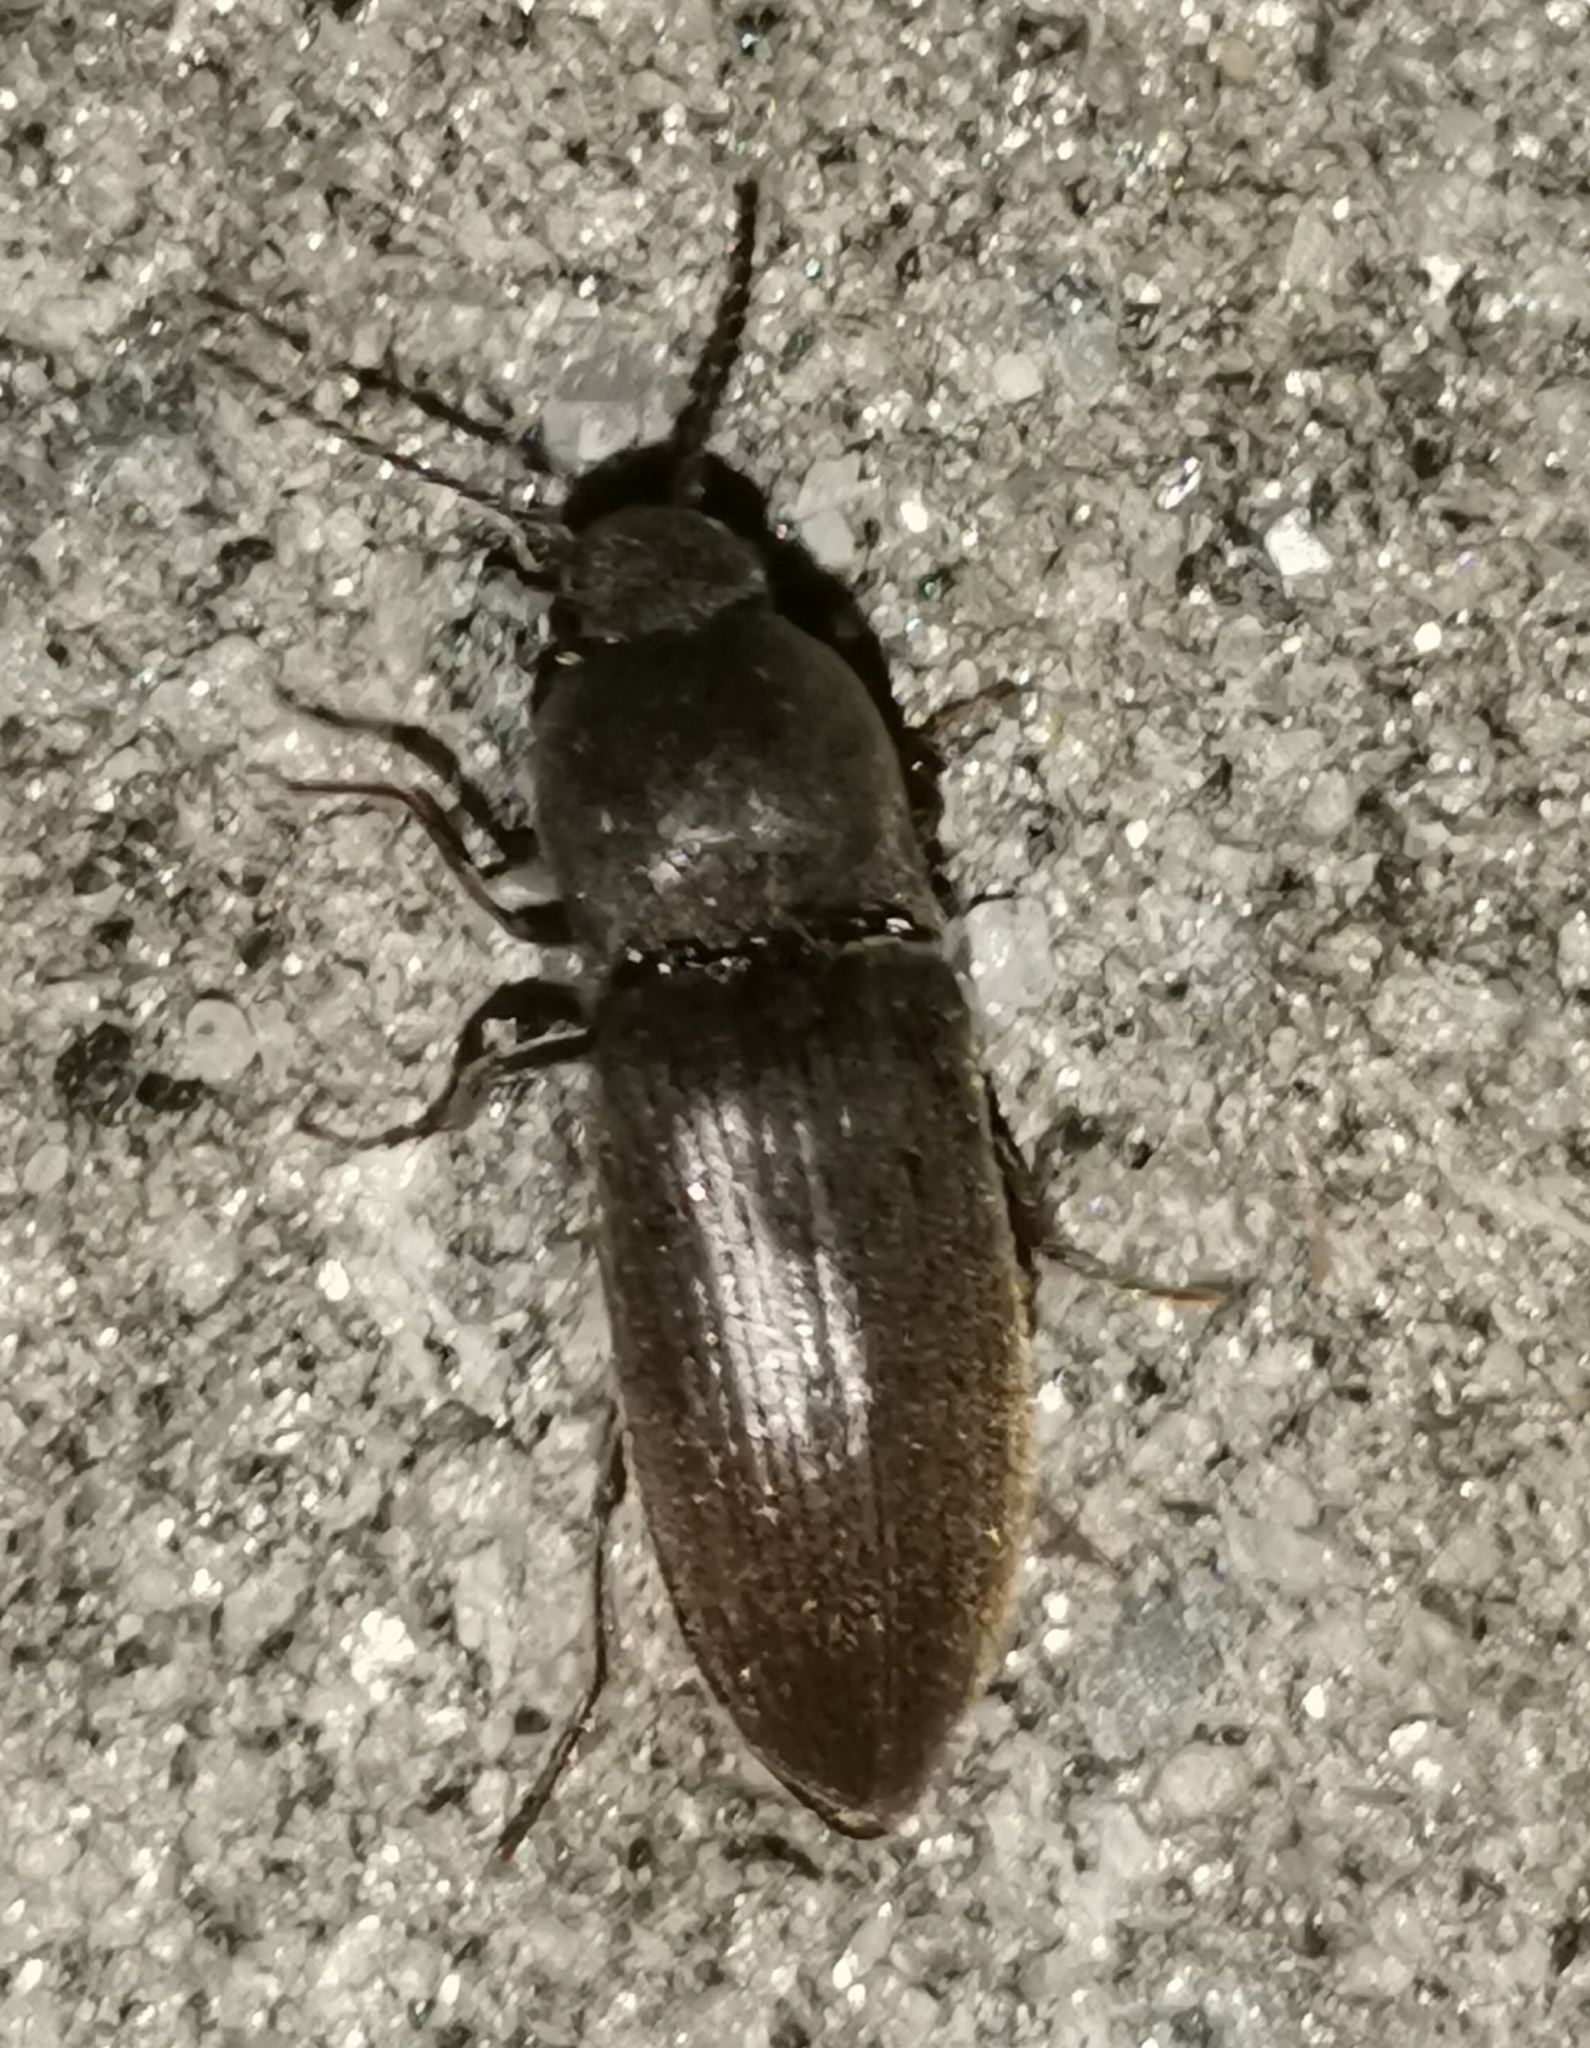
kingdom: Animalia
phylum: Arthropoda
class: Insecta
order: Coleoptera
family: Elateridae
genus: Agriotes
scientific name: Agriotes obscurus
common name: Dusky wireworm
